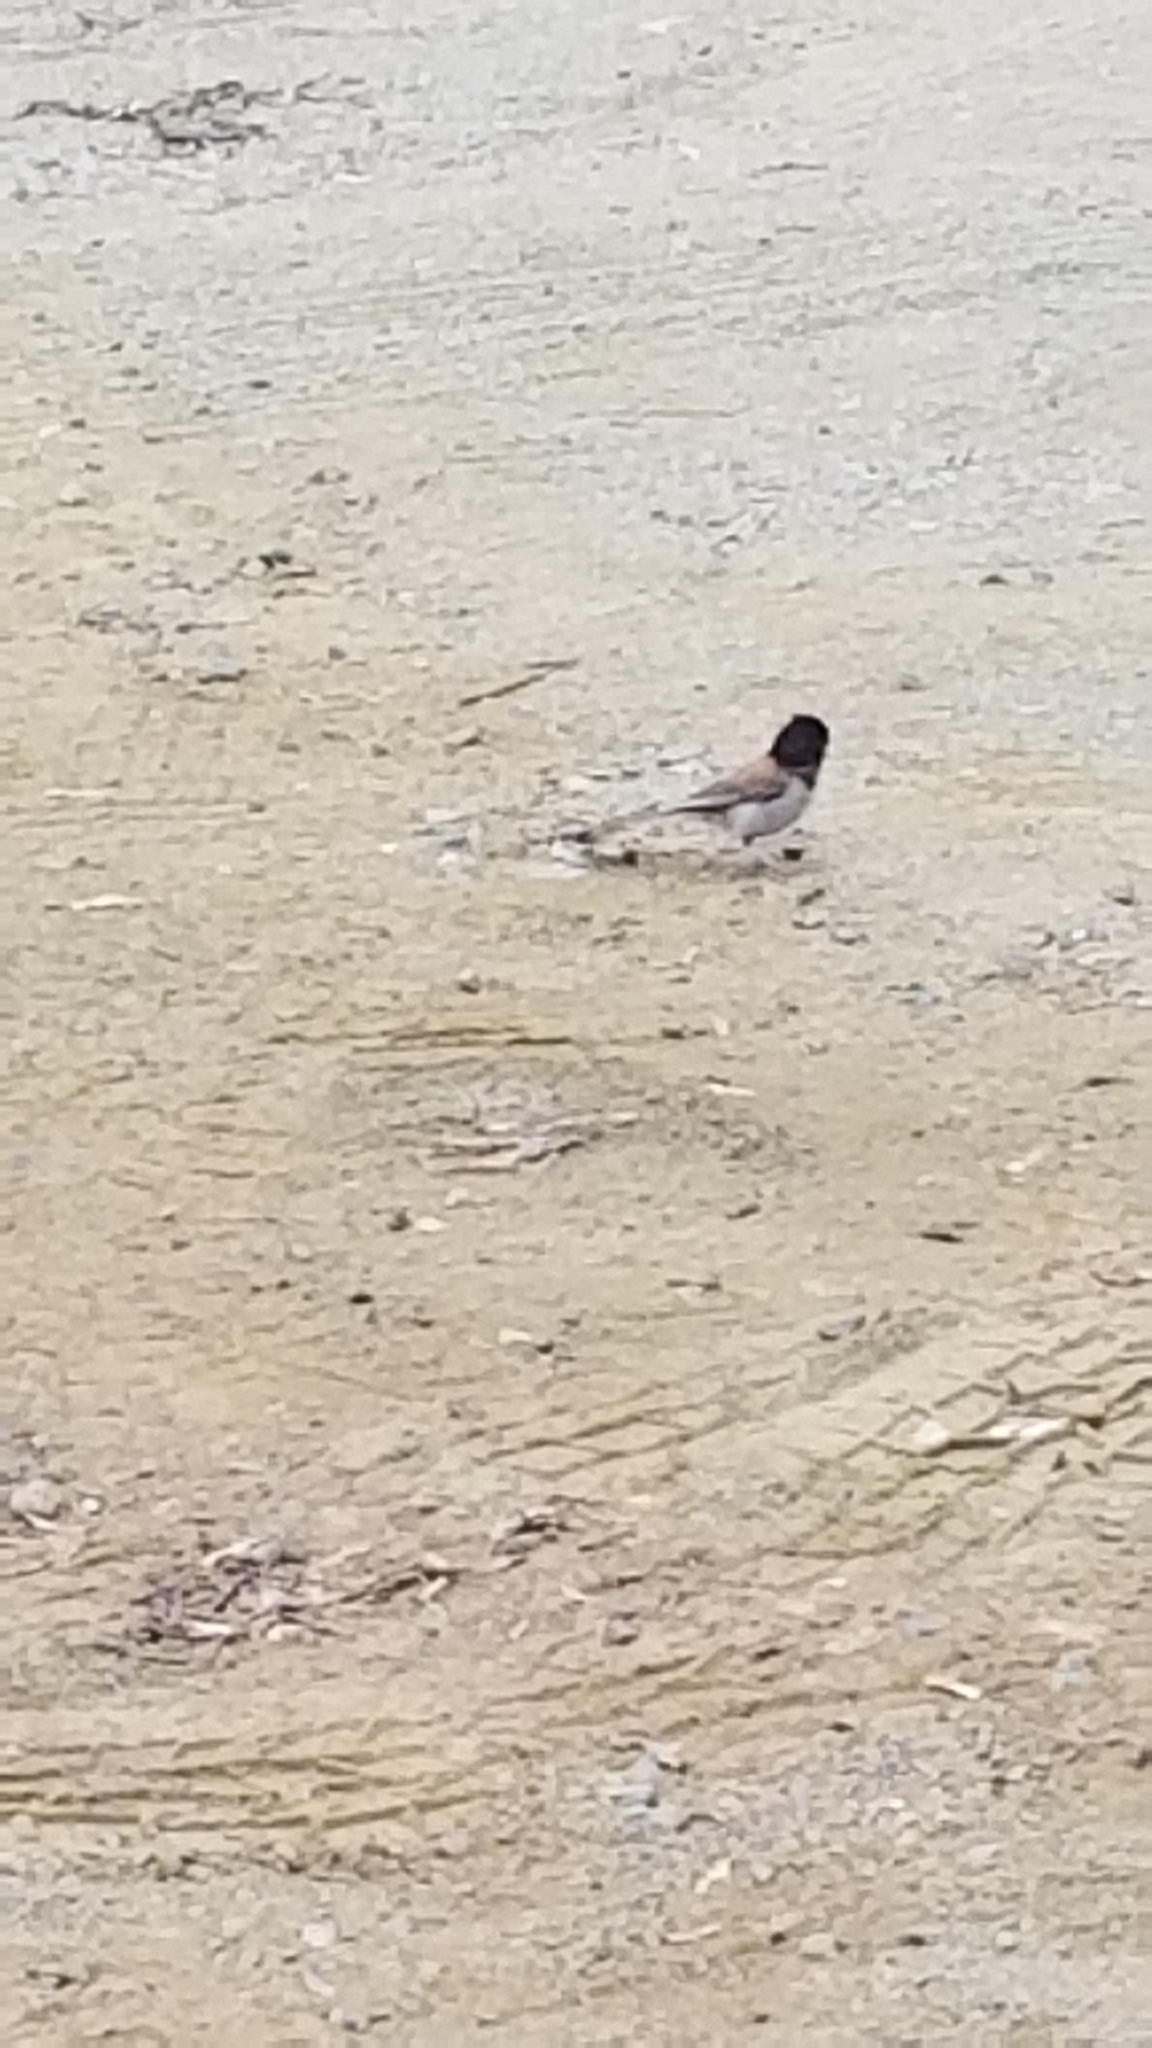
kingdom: Animalia
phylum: Chordata
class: Aves
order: Passeriformes
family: Passerellidae
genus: Junco
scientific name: Junco hyemalis
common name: Dark-eyed junco
